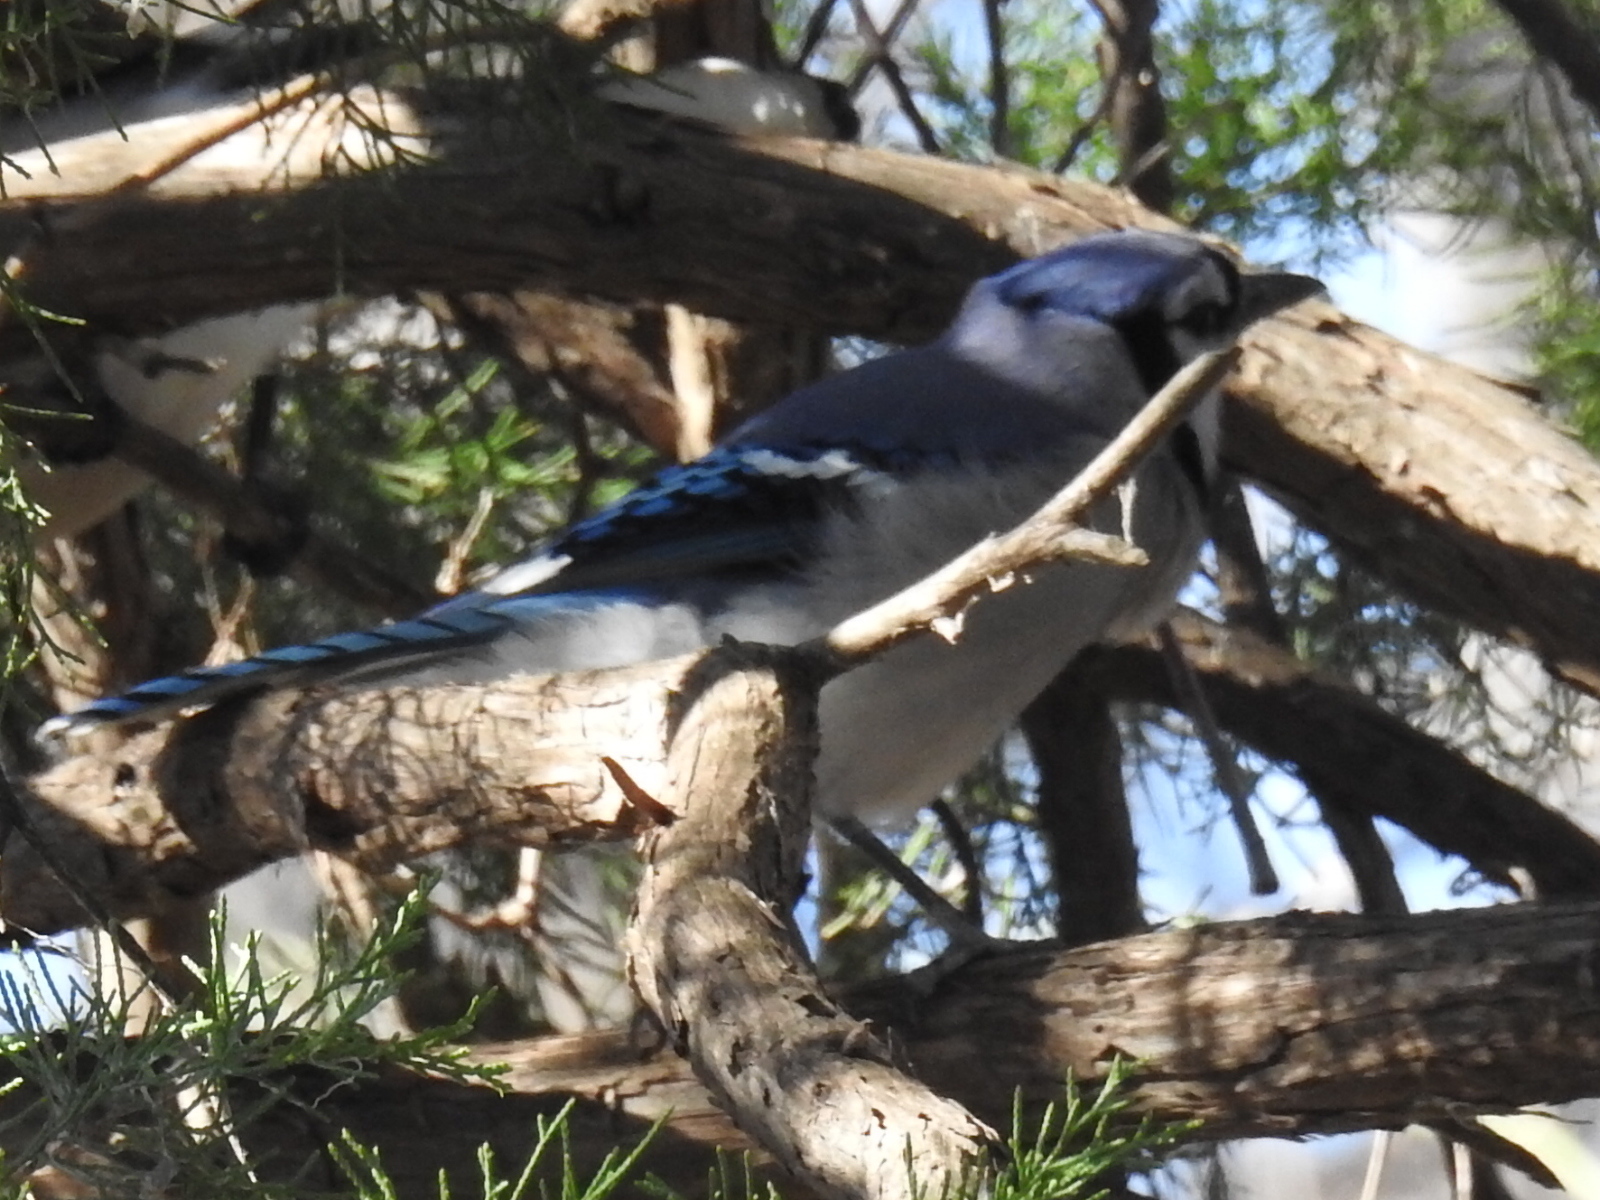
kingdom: Animalia
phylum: Chordata
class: Aves
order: Passeriformes
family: Corvidae
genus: Cyanocitta
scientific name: Cyanocitta cristata
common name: Blue jay
